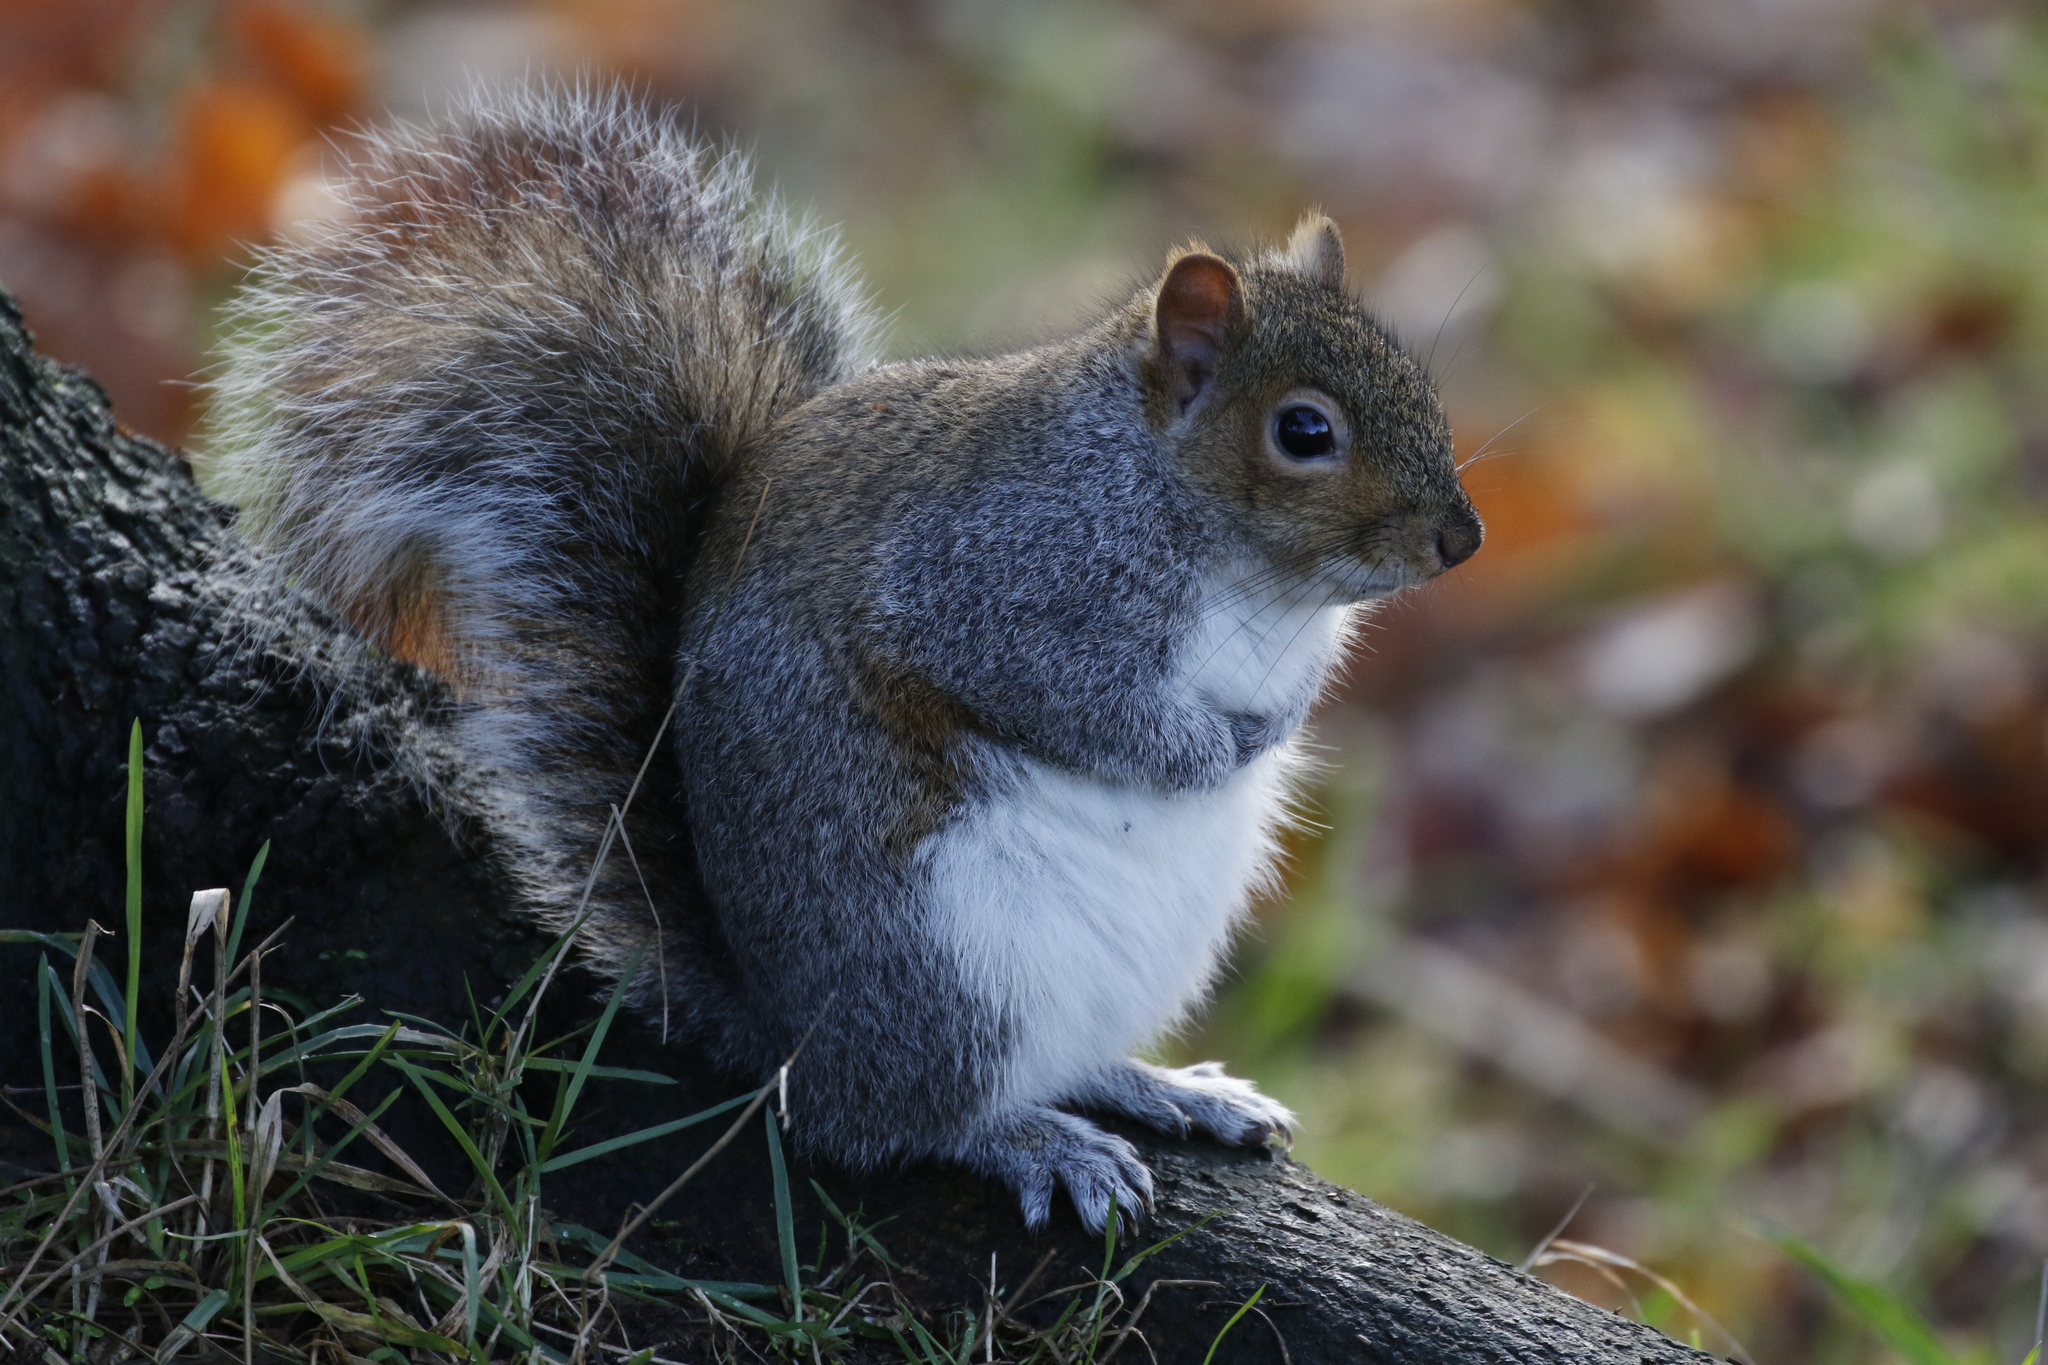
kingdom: Animalia
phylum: Chordata
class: Mammalia
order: Rodentia
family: Sciuridae
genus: Sciurus
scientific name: Sciurus carolinensis
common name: Eastern gray squirrel
